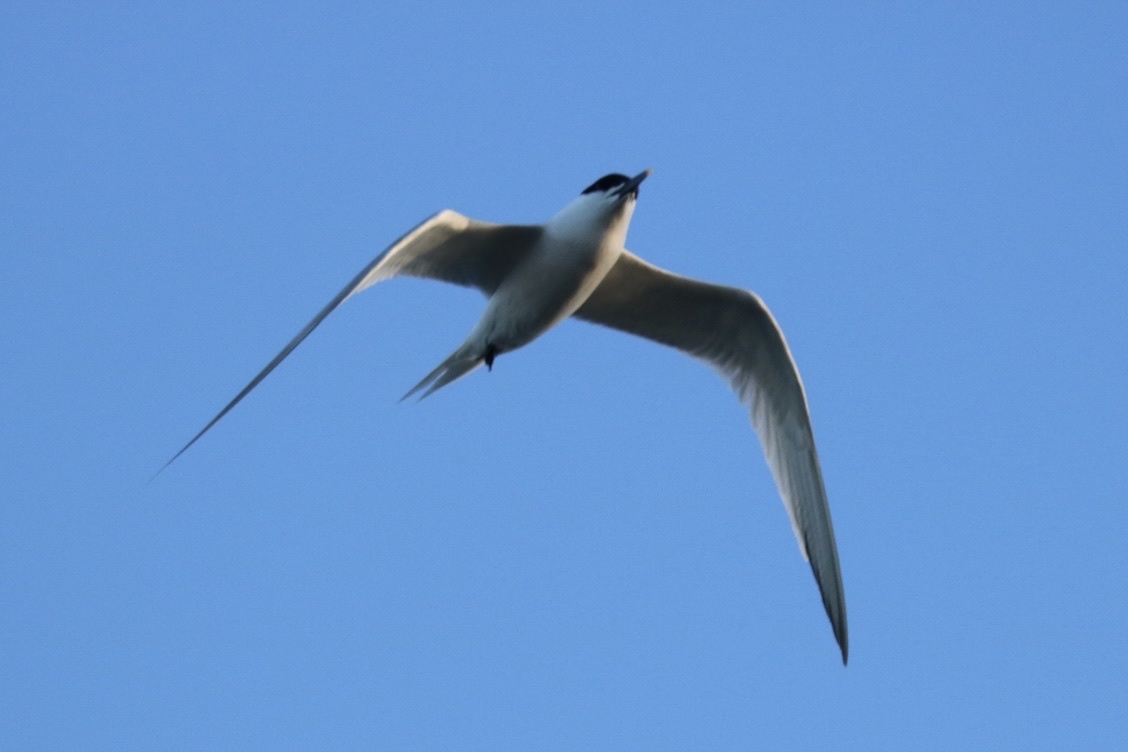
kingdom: Animalia
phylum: Chordata
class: Aves
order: Charadriiformes
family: Laridae
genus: Thalasseus
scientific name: Thalasseus sandvicensis
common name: Sandwich tern
